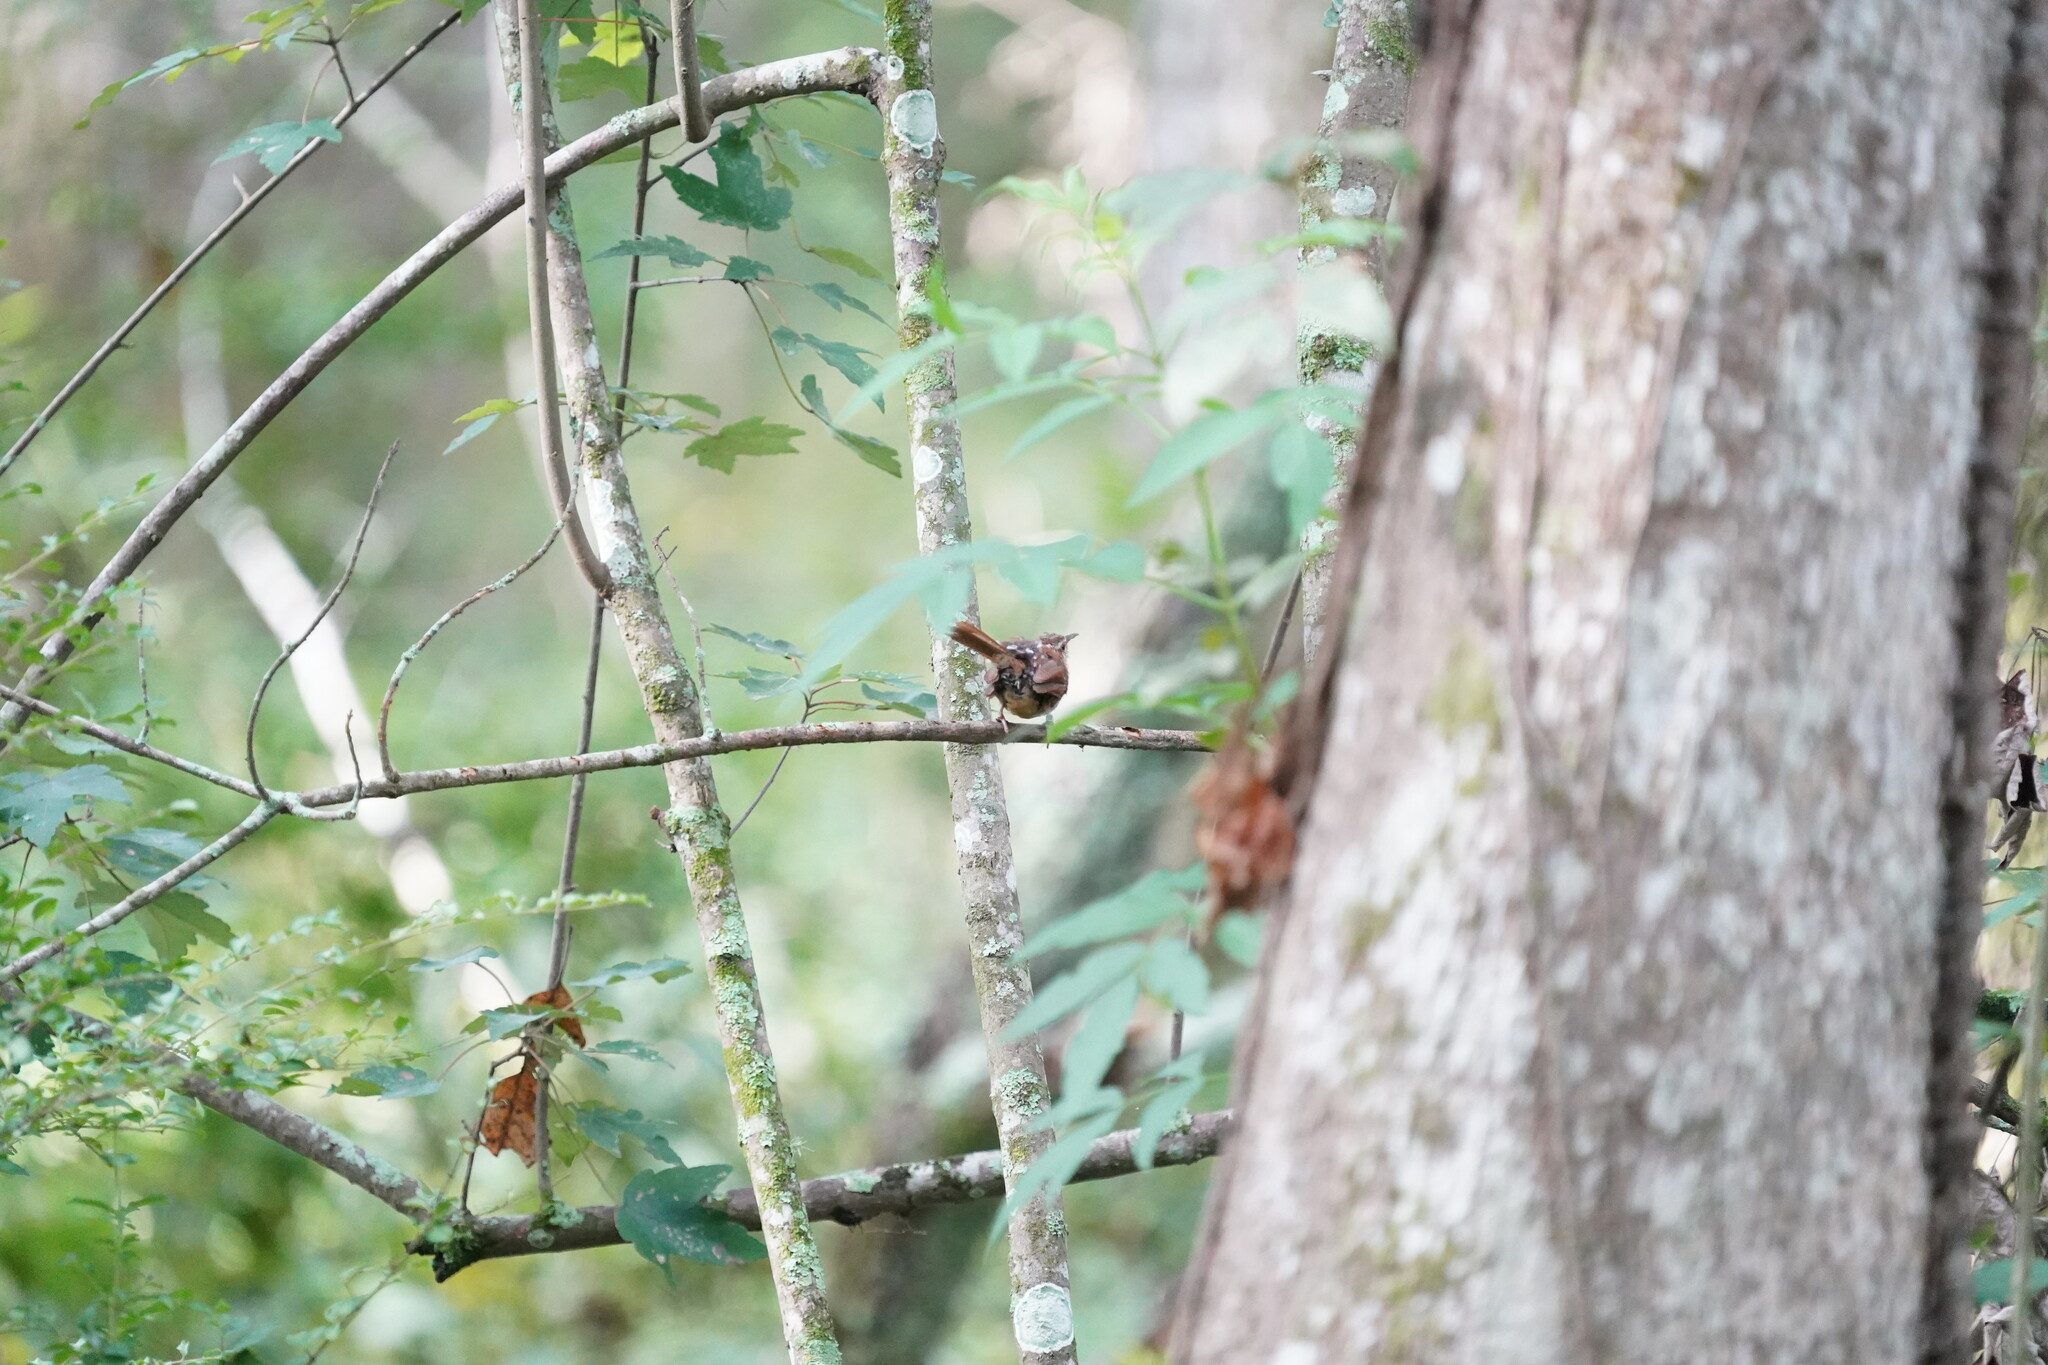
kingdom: Animalia
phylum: Chordata
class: Aves
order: Passeriformes
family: Troglodytidae
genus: Thryothorus
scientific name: Thryothorus ludovicianus
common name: Carolina wren
